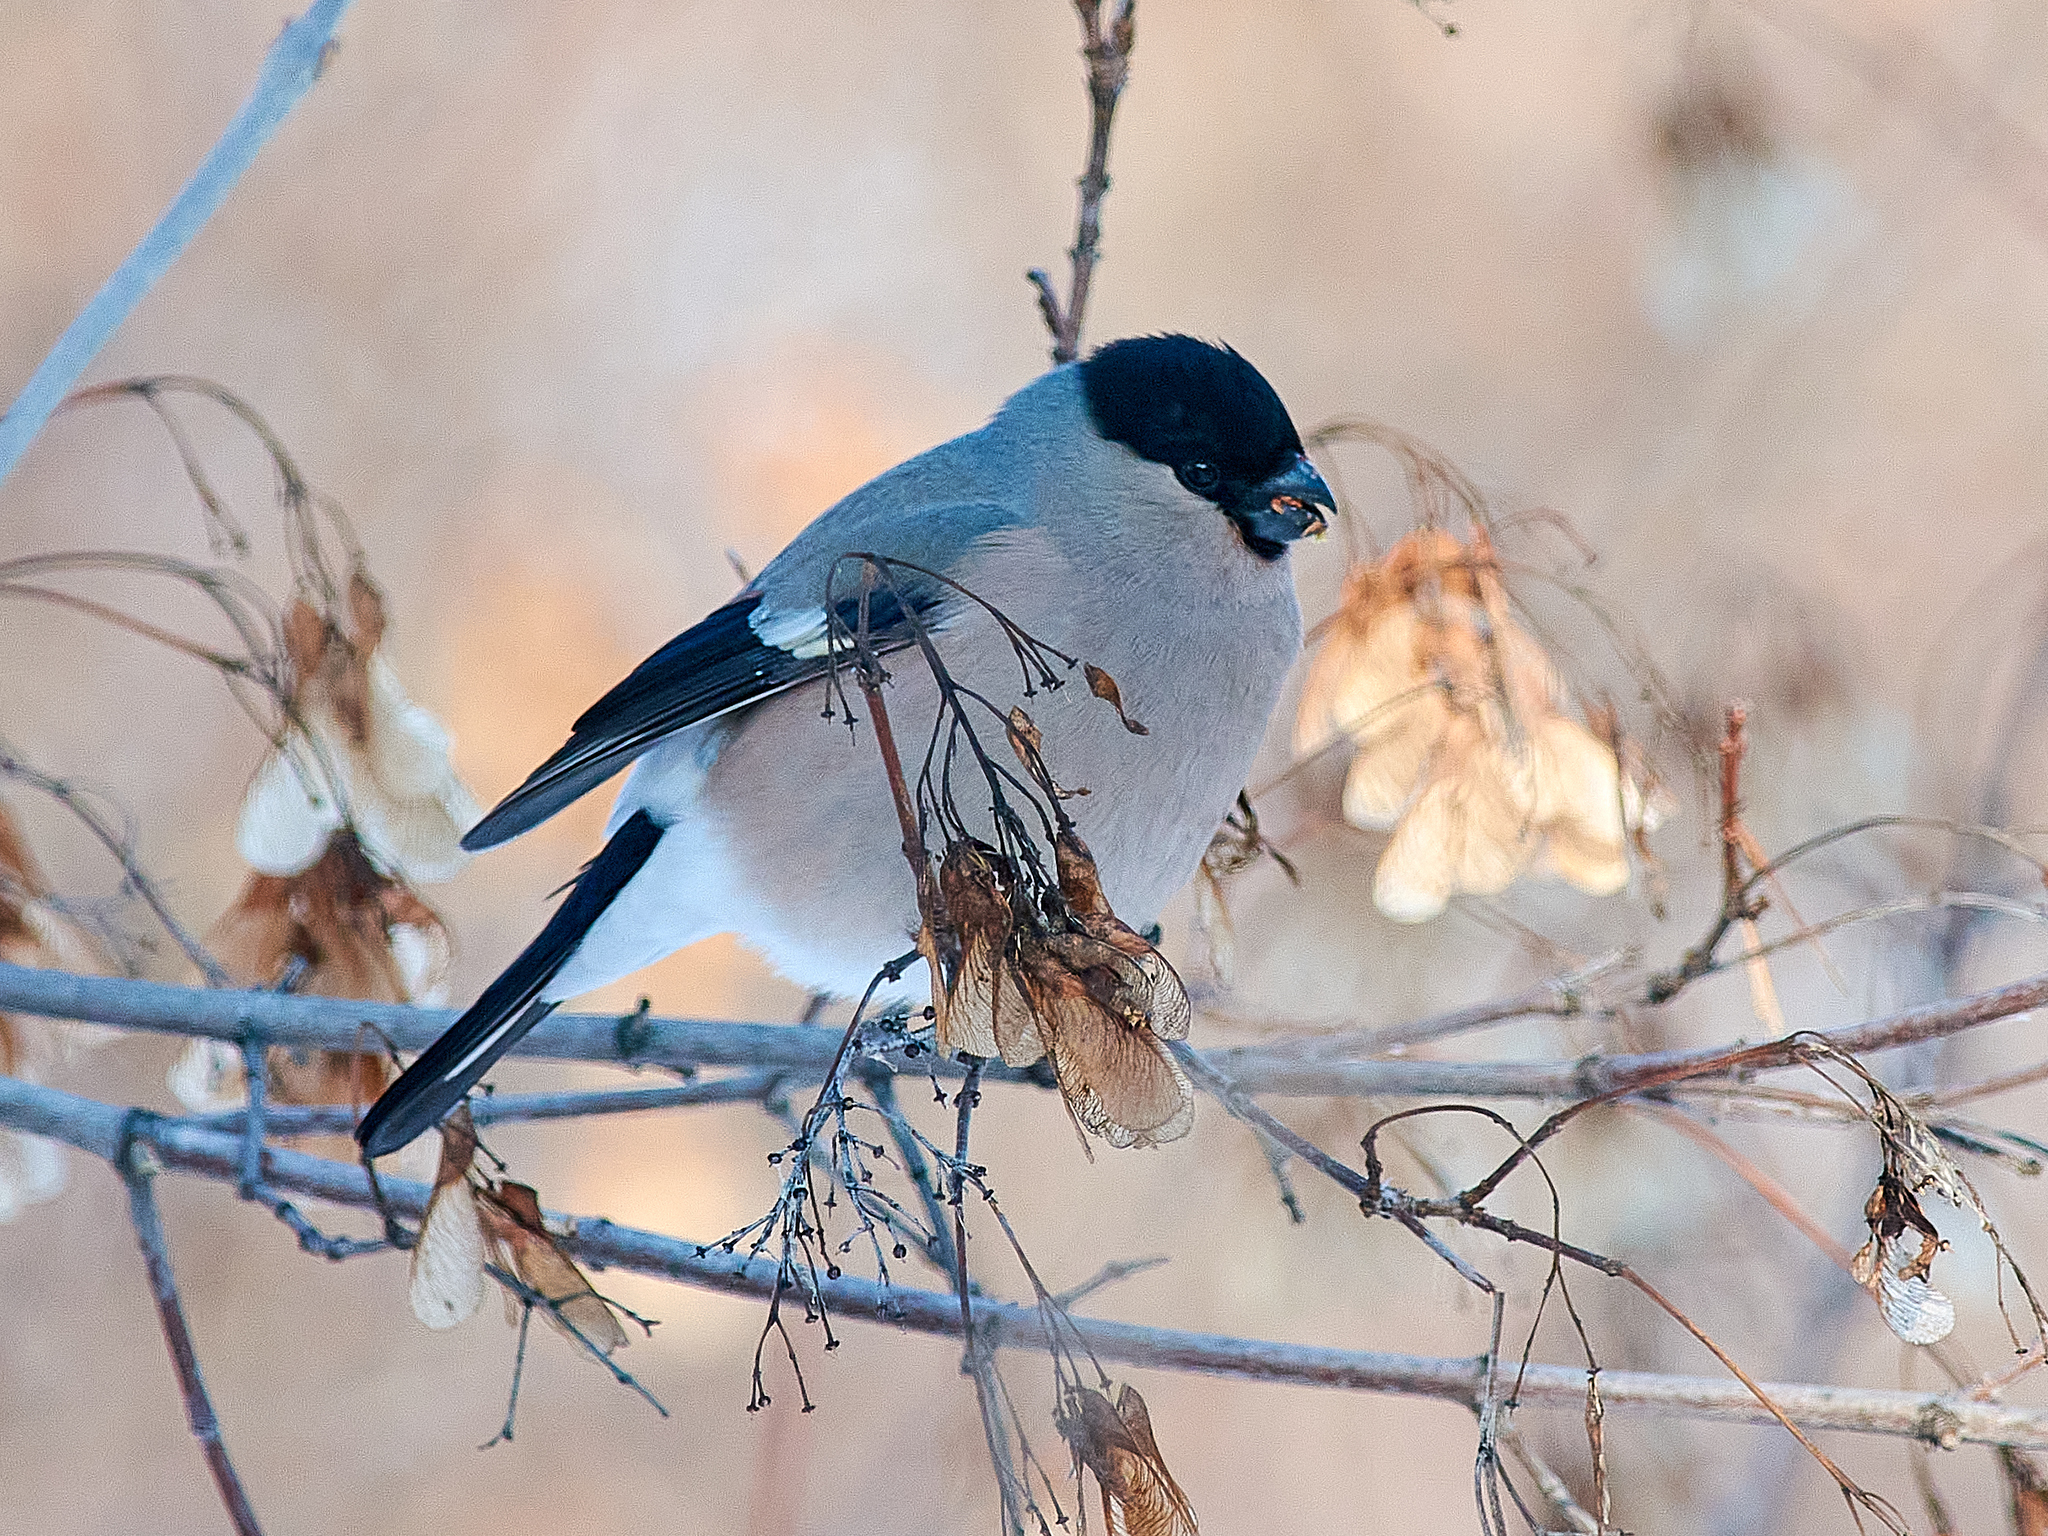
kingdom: Animalia
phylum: Chordata
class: Aves
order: Passeriformes
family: Fringillidae
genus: Pyrrhula
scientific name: Pyrrhula pyrrhula
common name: Eurasian bullfinch
